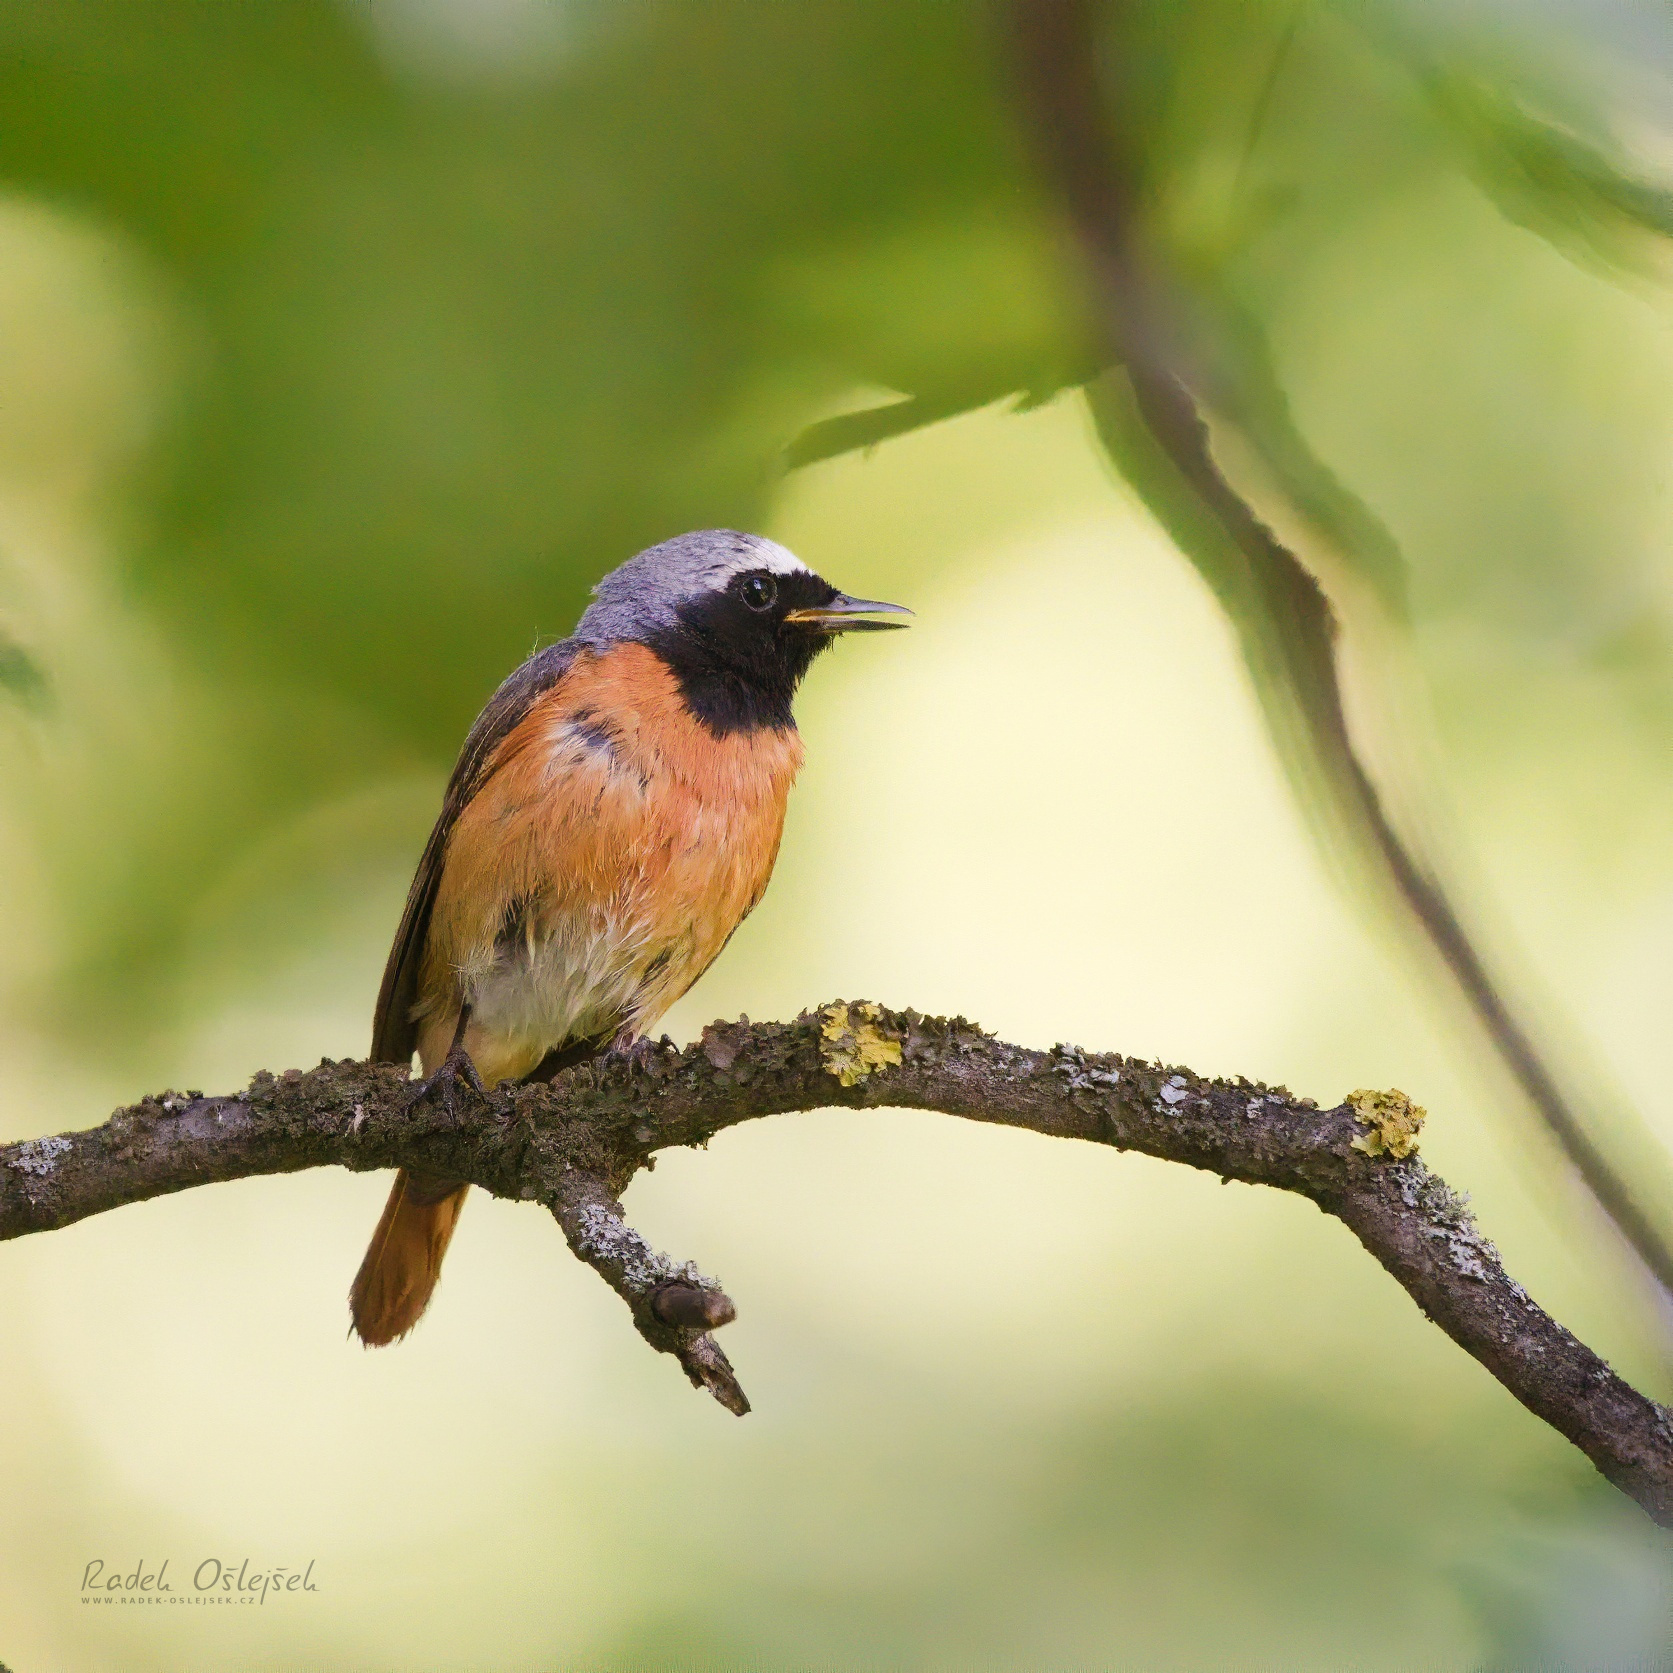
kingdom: Animalia
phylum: Chordata
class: Aves
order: Passeriformes
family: Muscicapidae
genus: Phoenicurus
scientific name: Phoenicurus phoenicurus
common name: Common redstart
